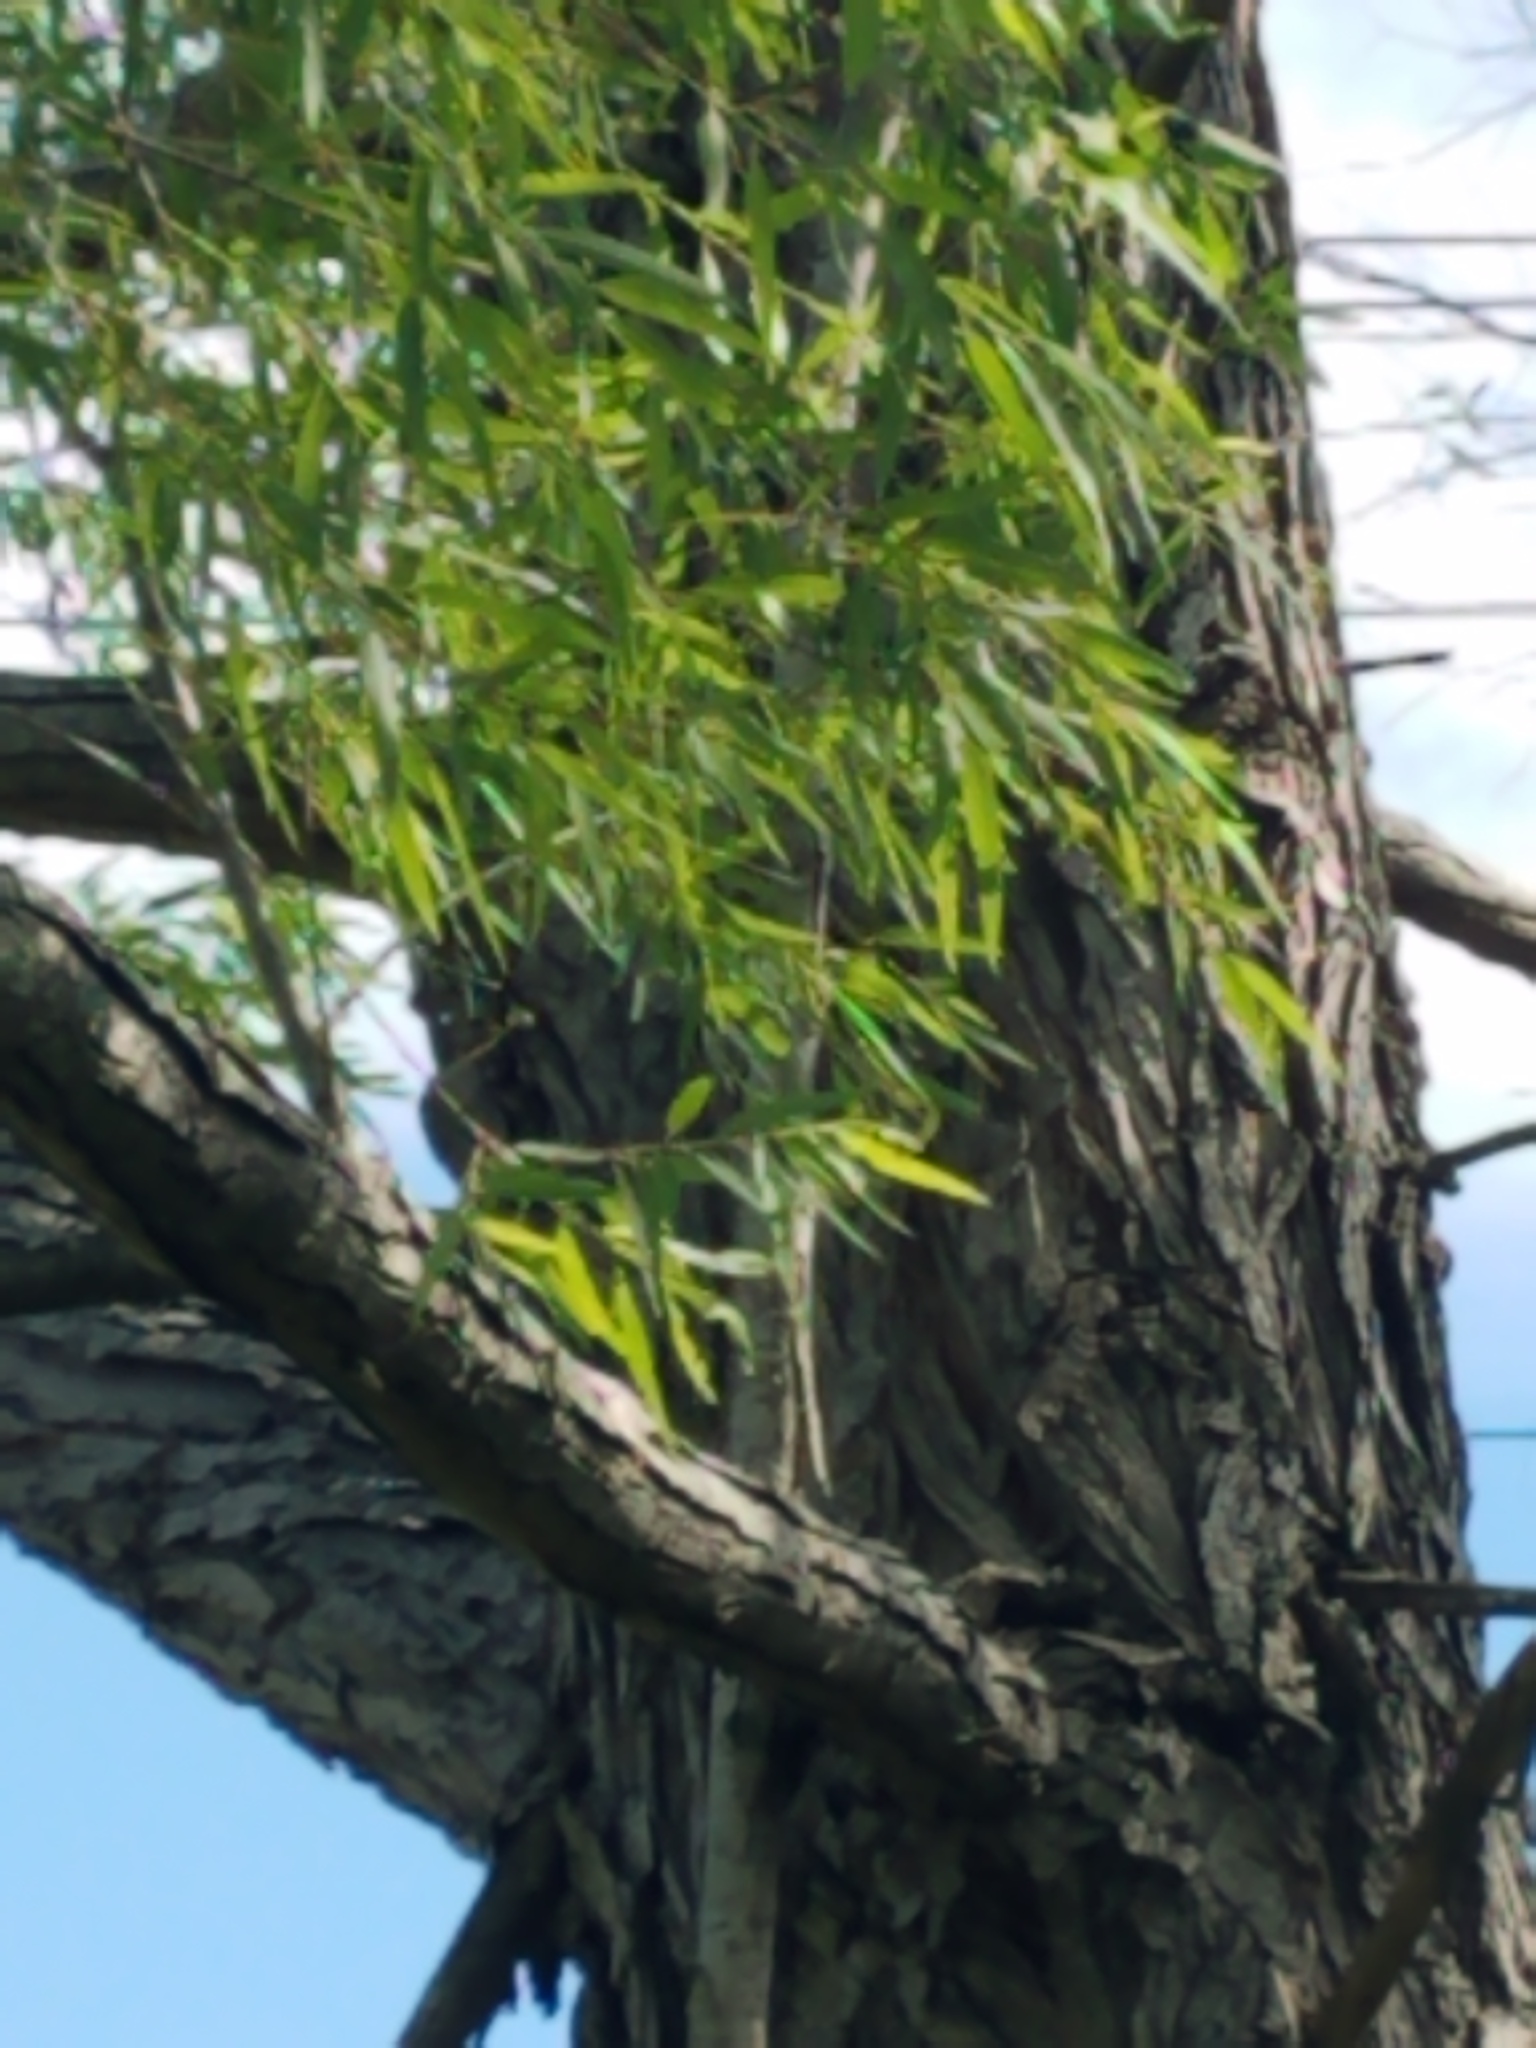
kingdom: Plantae
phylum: Tracheophyta
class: Magnoliopsida
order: Malpighiales
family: Salicaceae
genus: Salix
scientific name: Salix nigra
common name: Black willow
